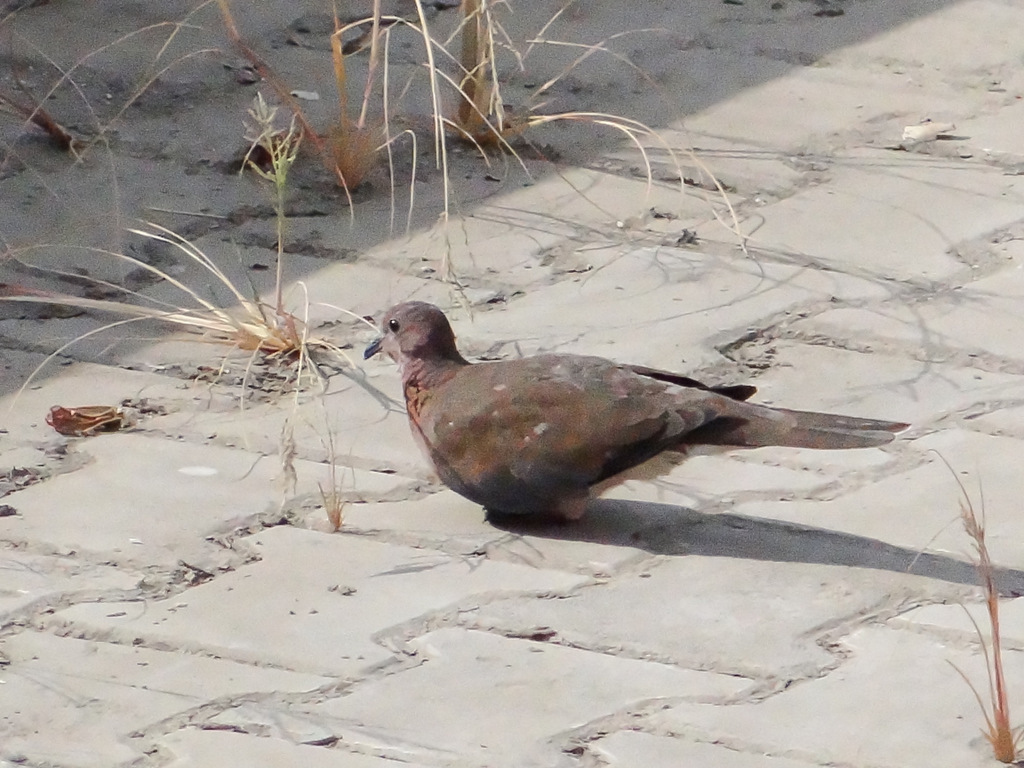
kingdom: Animalia
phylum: Chordata
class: Aves
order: Columbiformes
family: Columbidae
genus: Spilopelia
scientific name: Spilopelia senegalensis
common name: Laughing dove
